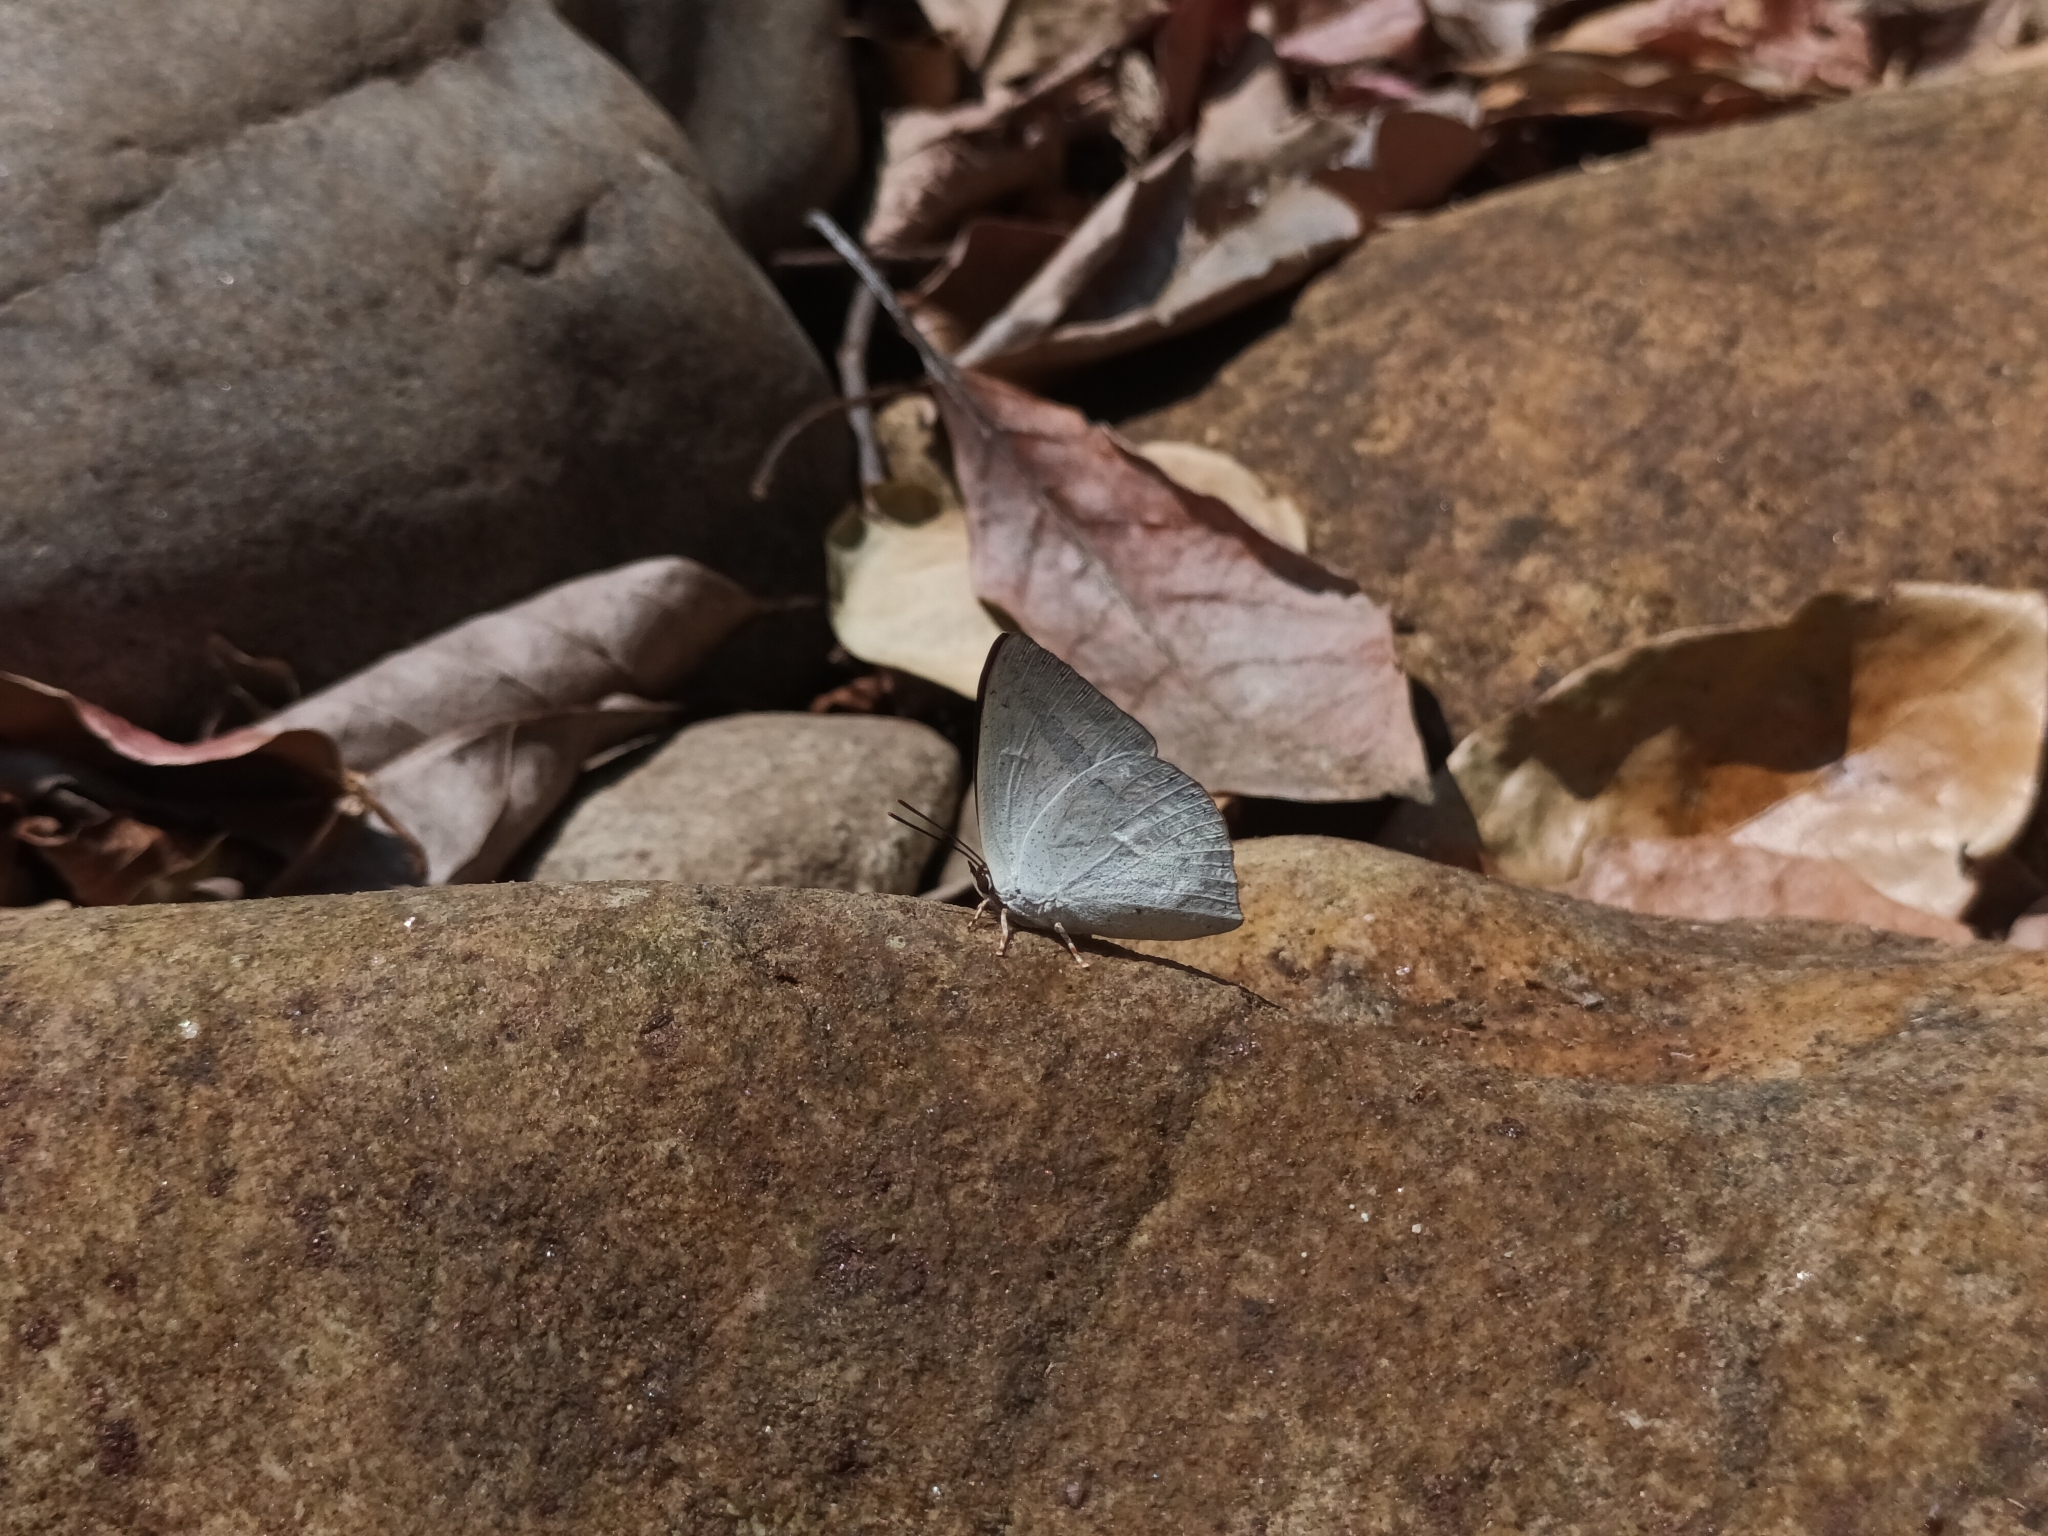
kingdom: Animalia
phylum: Arthropoda
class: Insecta
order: Lepidoptera
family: Lycaenidae
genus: Curetis
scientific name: Curetis siva
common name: Shiva sunbeam
